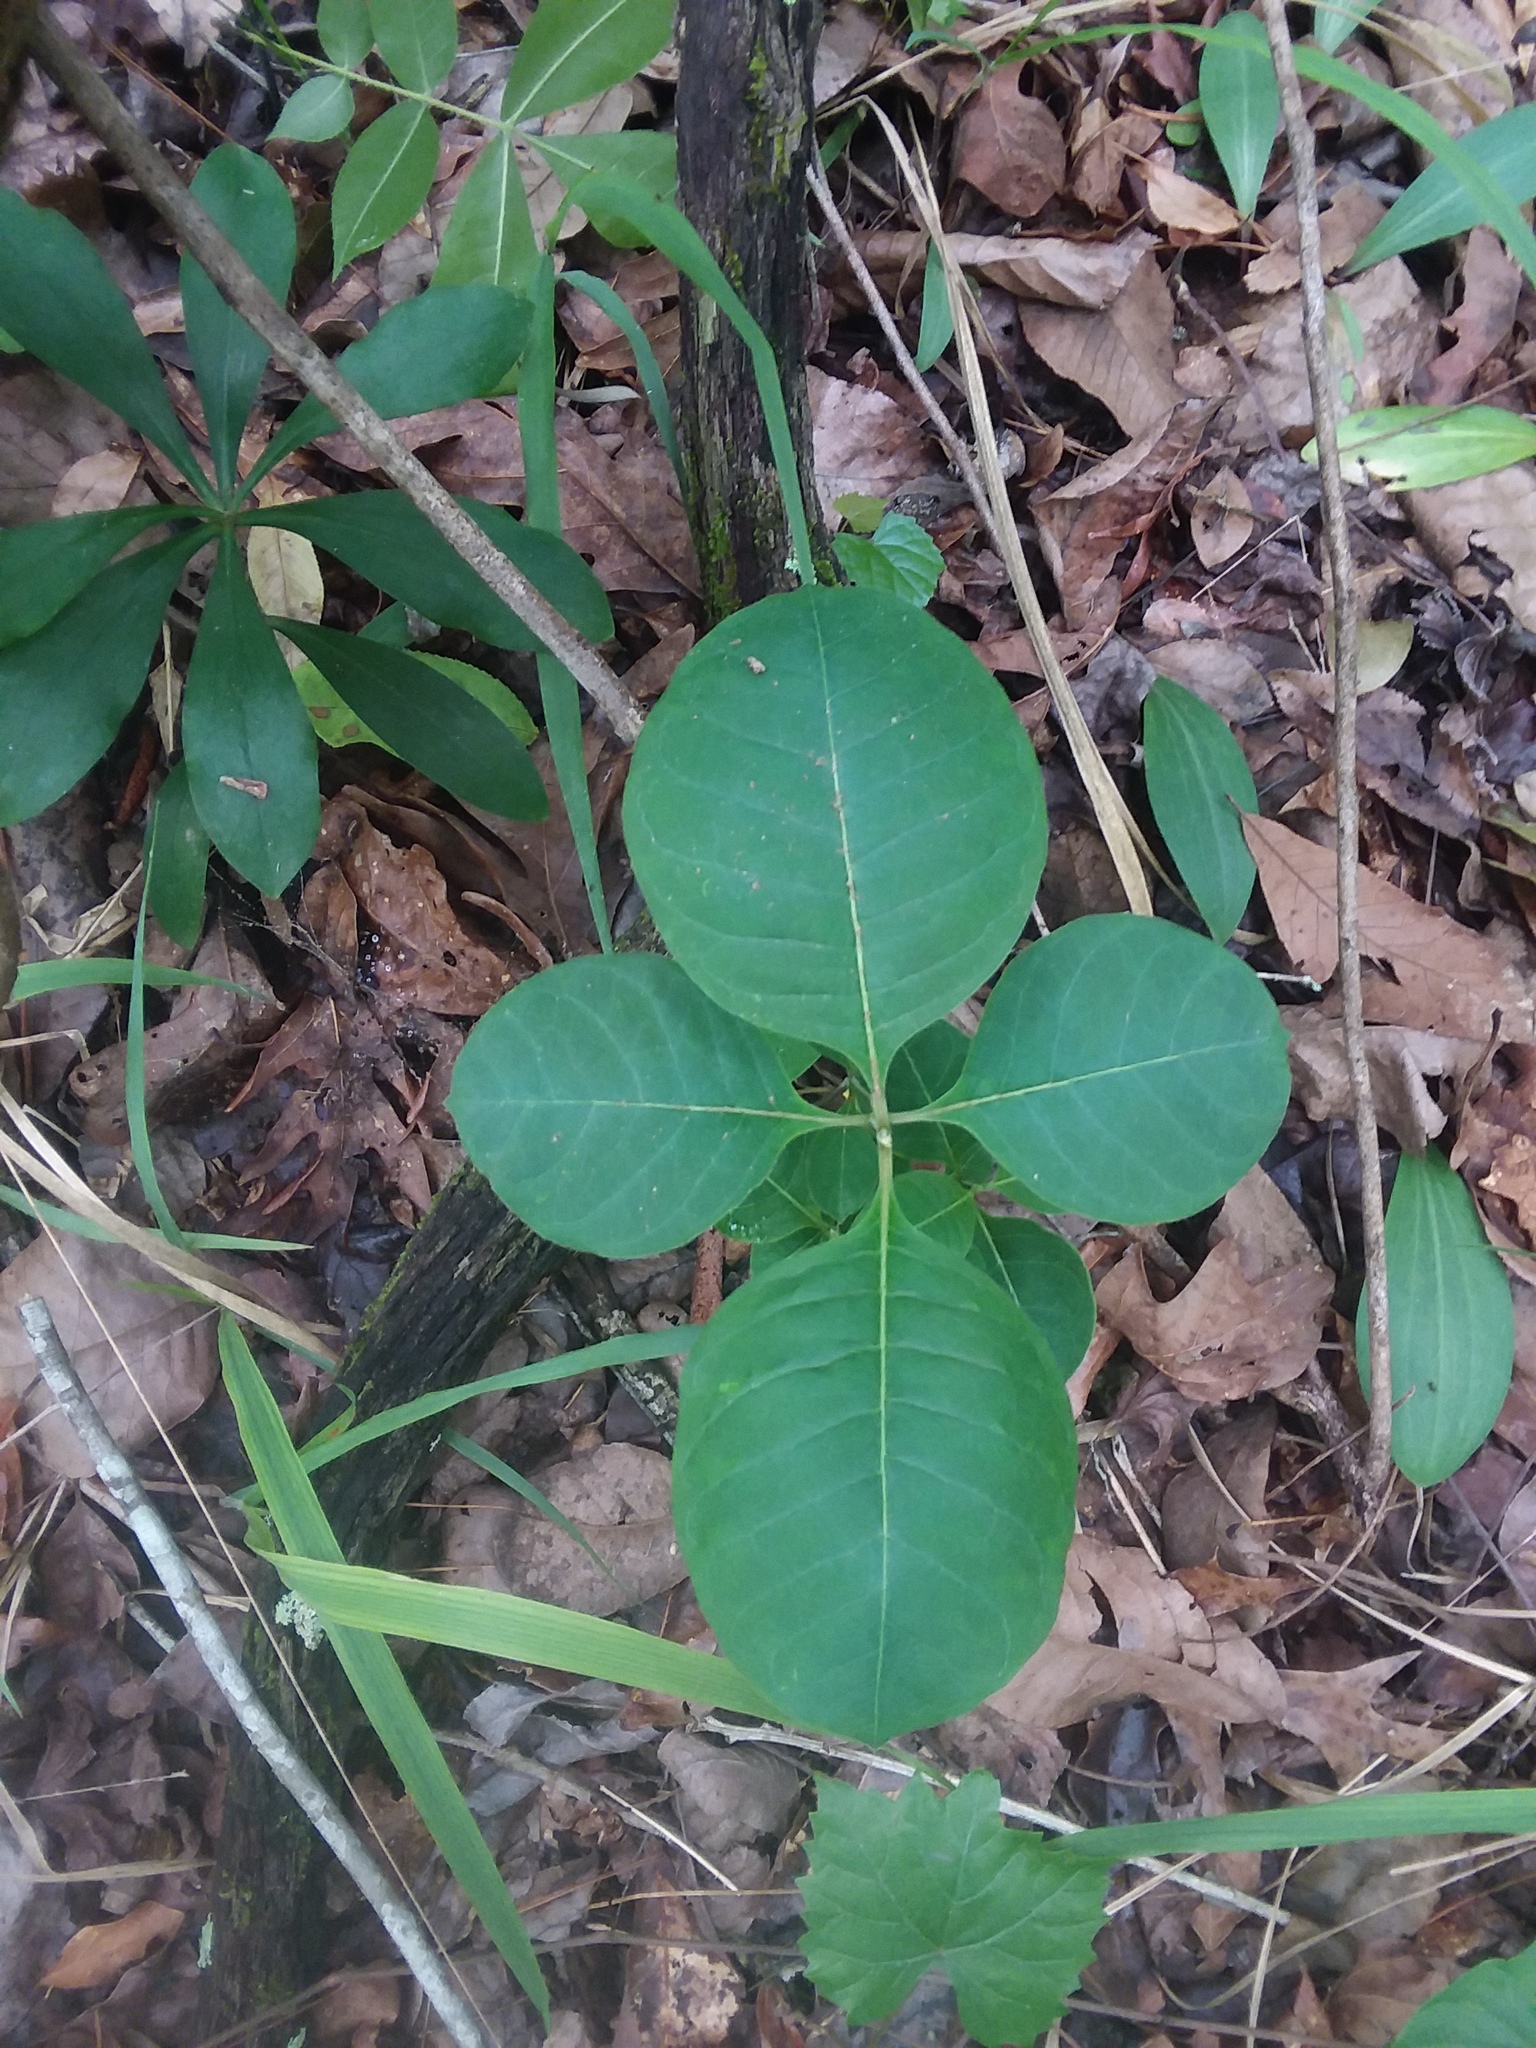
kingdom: Plantae
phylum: Tracheophyta
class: Magnoliopsida
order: Gentianales
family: Apocynaceae
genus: Asclepias
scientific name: Asclepias variegata
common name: Variegated milkweed
